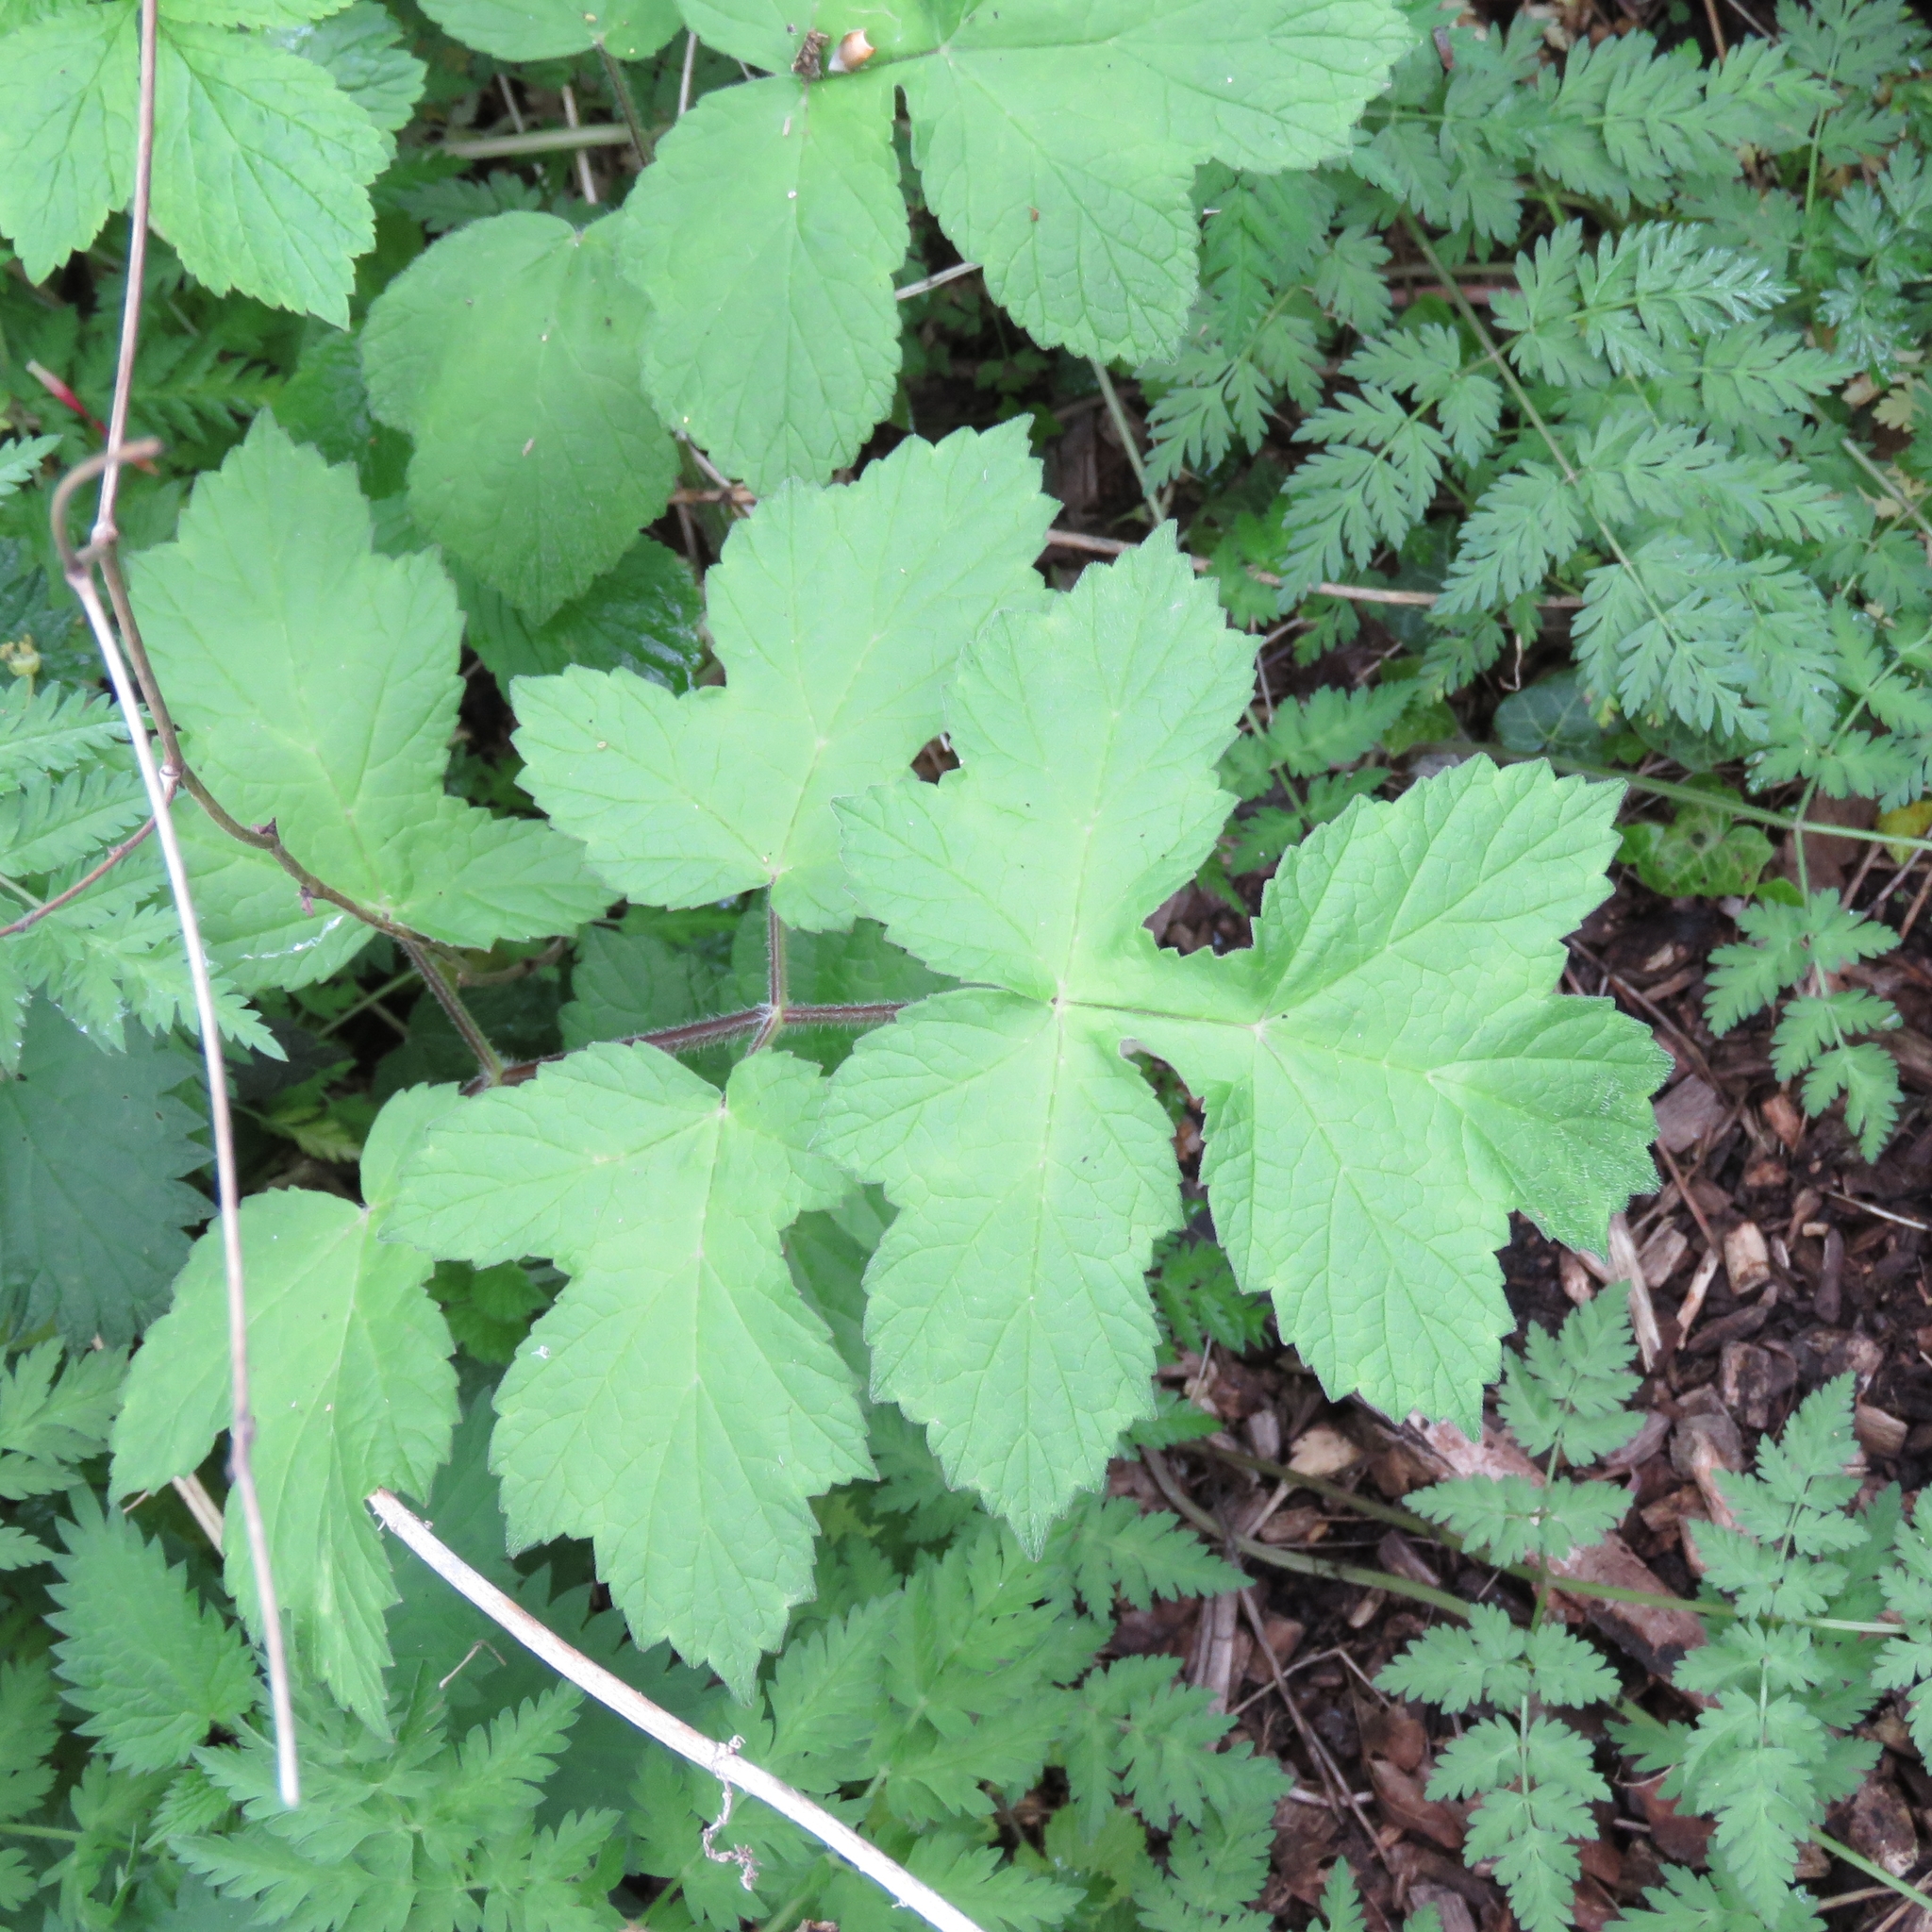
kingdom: Plantae
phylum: Tracheophyta
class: Magnoliopsida
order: Apiales
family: Apiaceae
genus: Heracleum
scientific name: Heracleum sphondylium
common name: Hogweed
